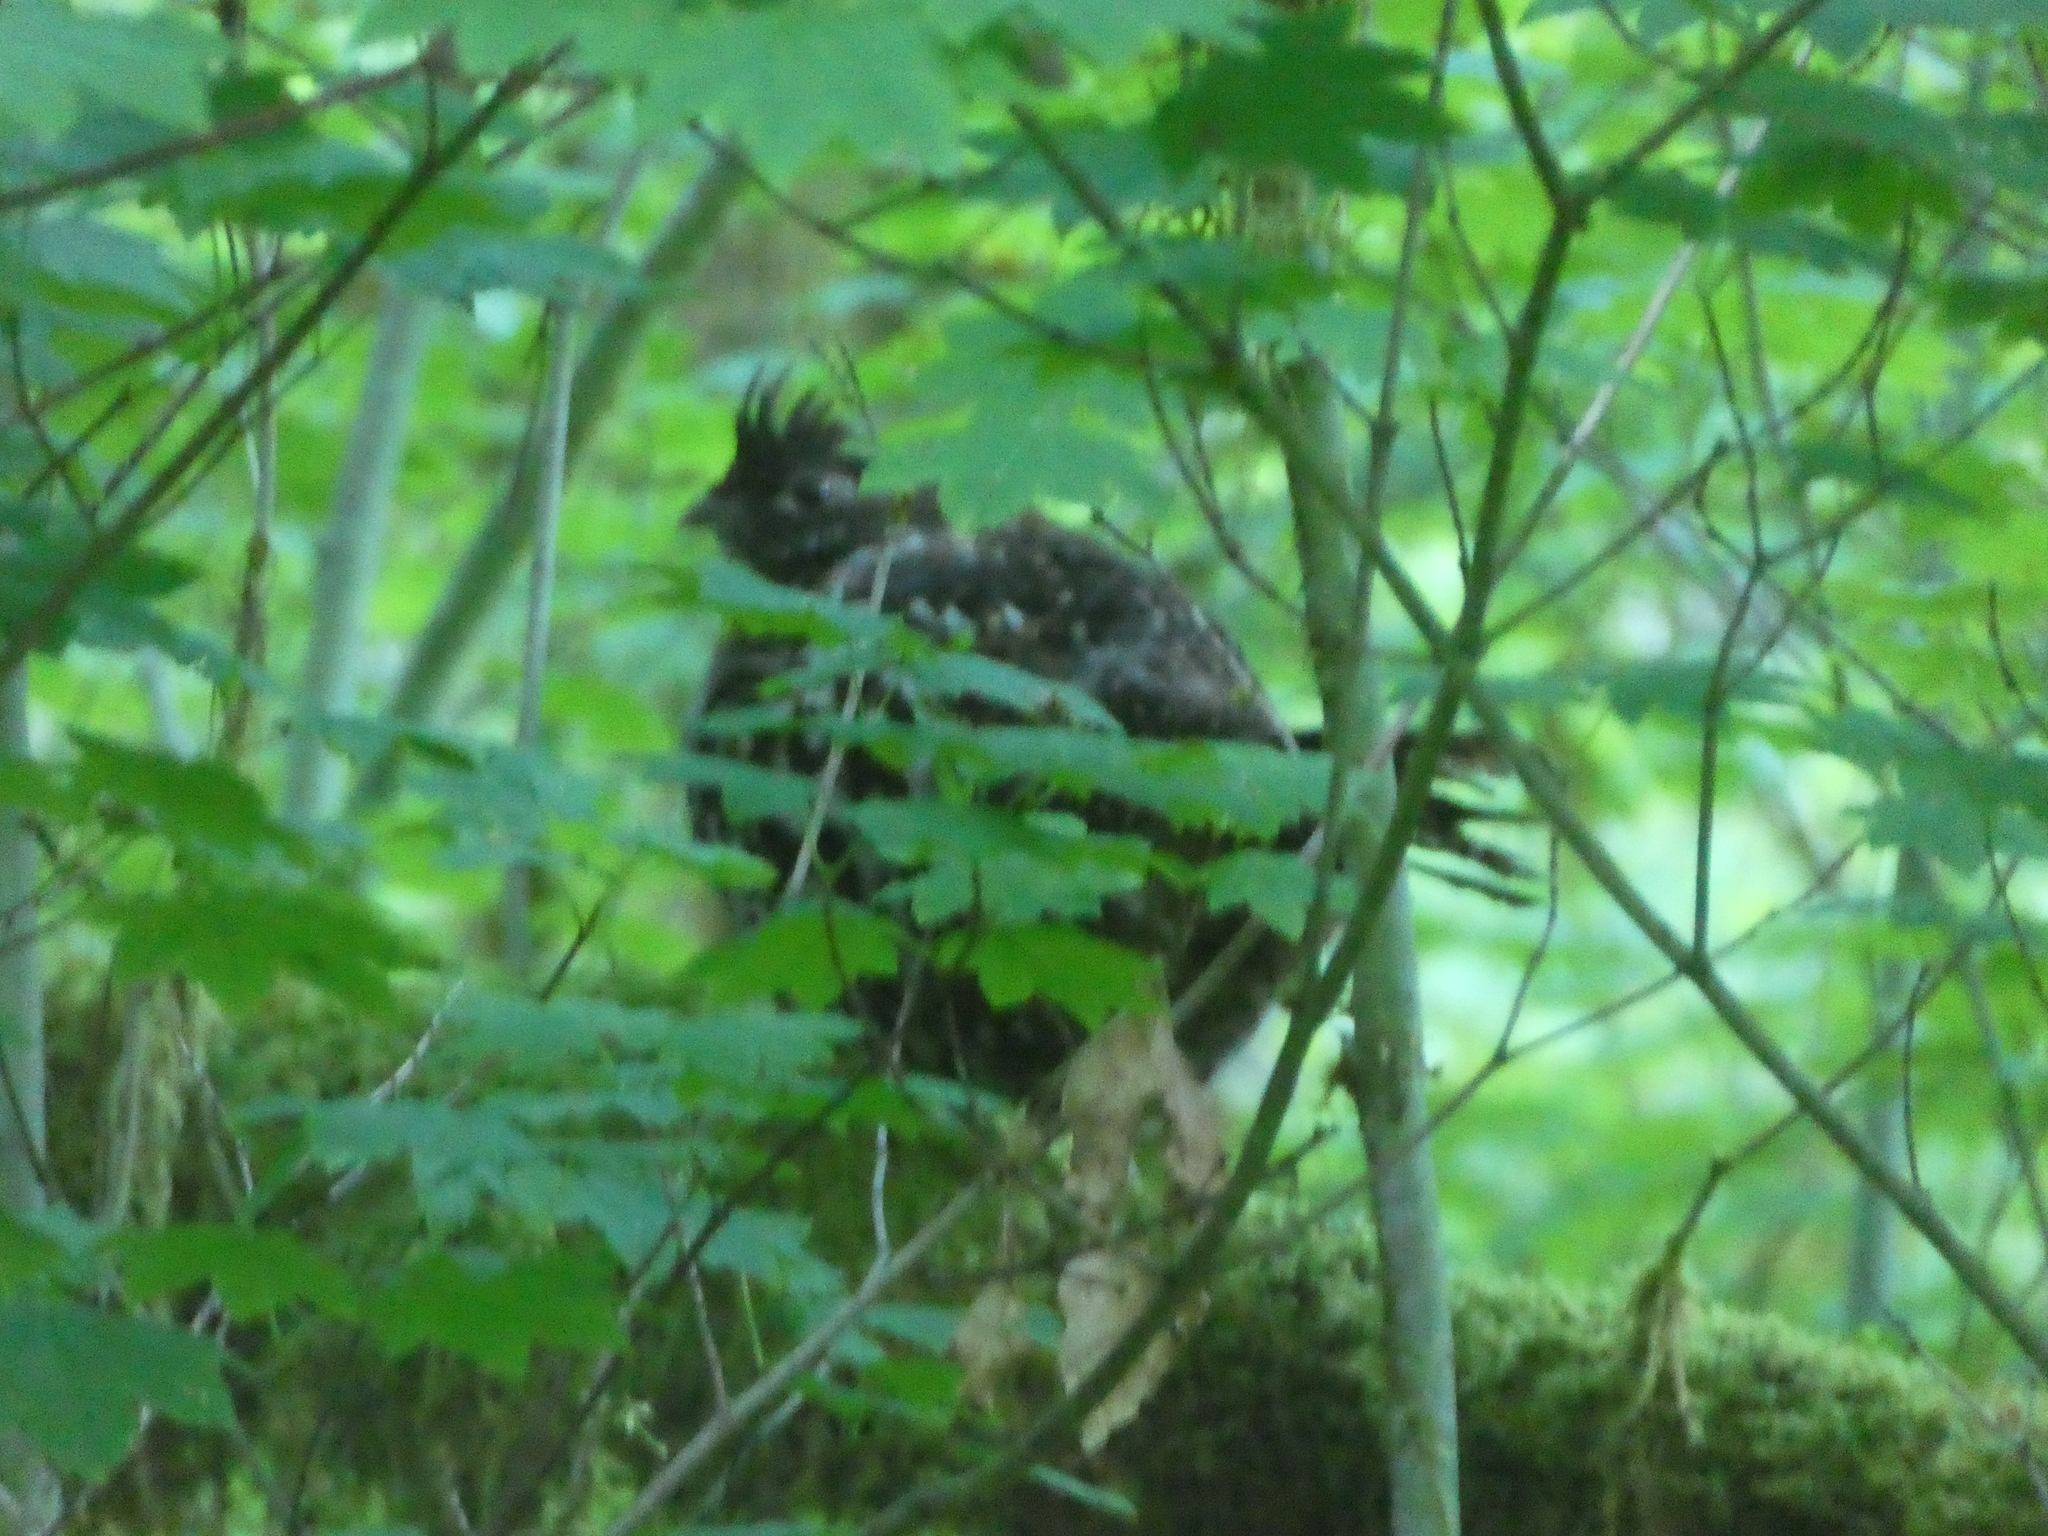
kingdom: Animalia
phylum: Chordata
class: Aves
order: Galliformes
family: Phasianidae
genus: Bonasa
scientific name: Bonasa umbellus
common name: Ruffed grouse
